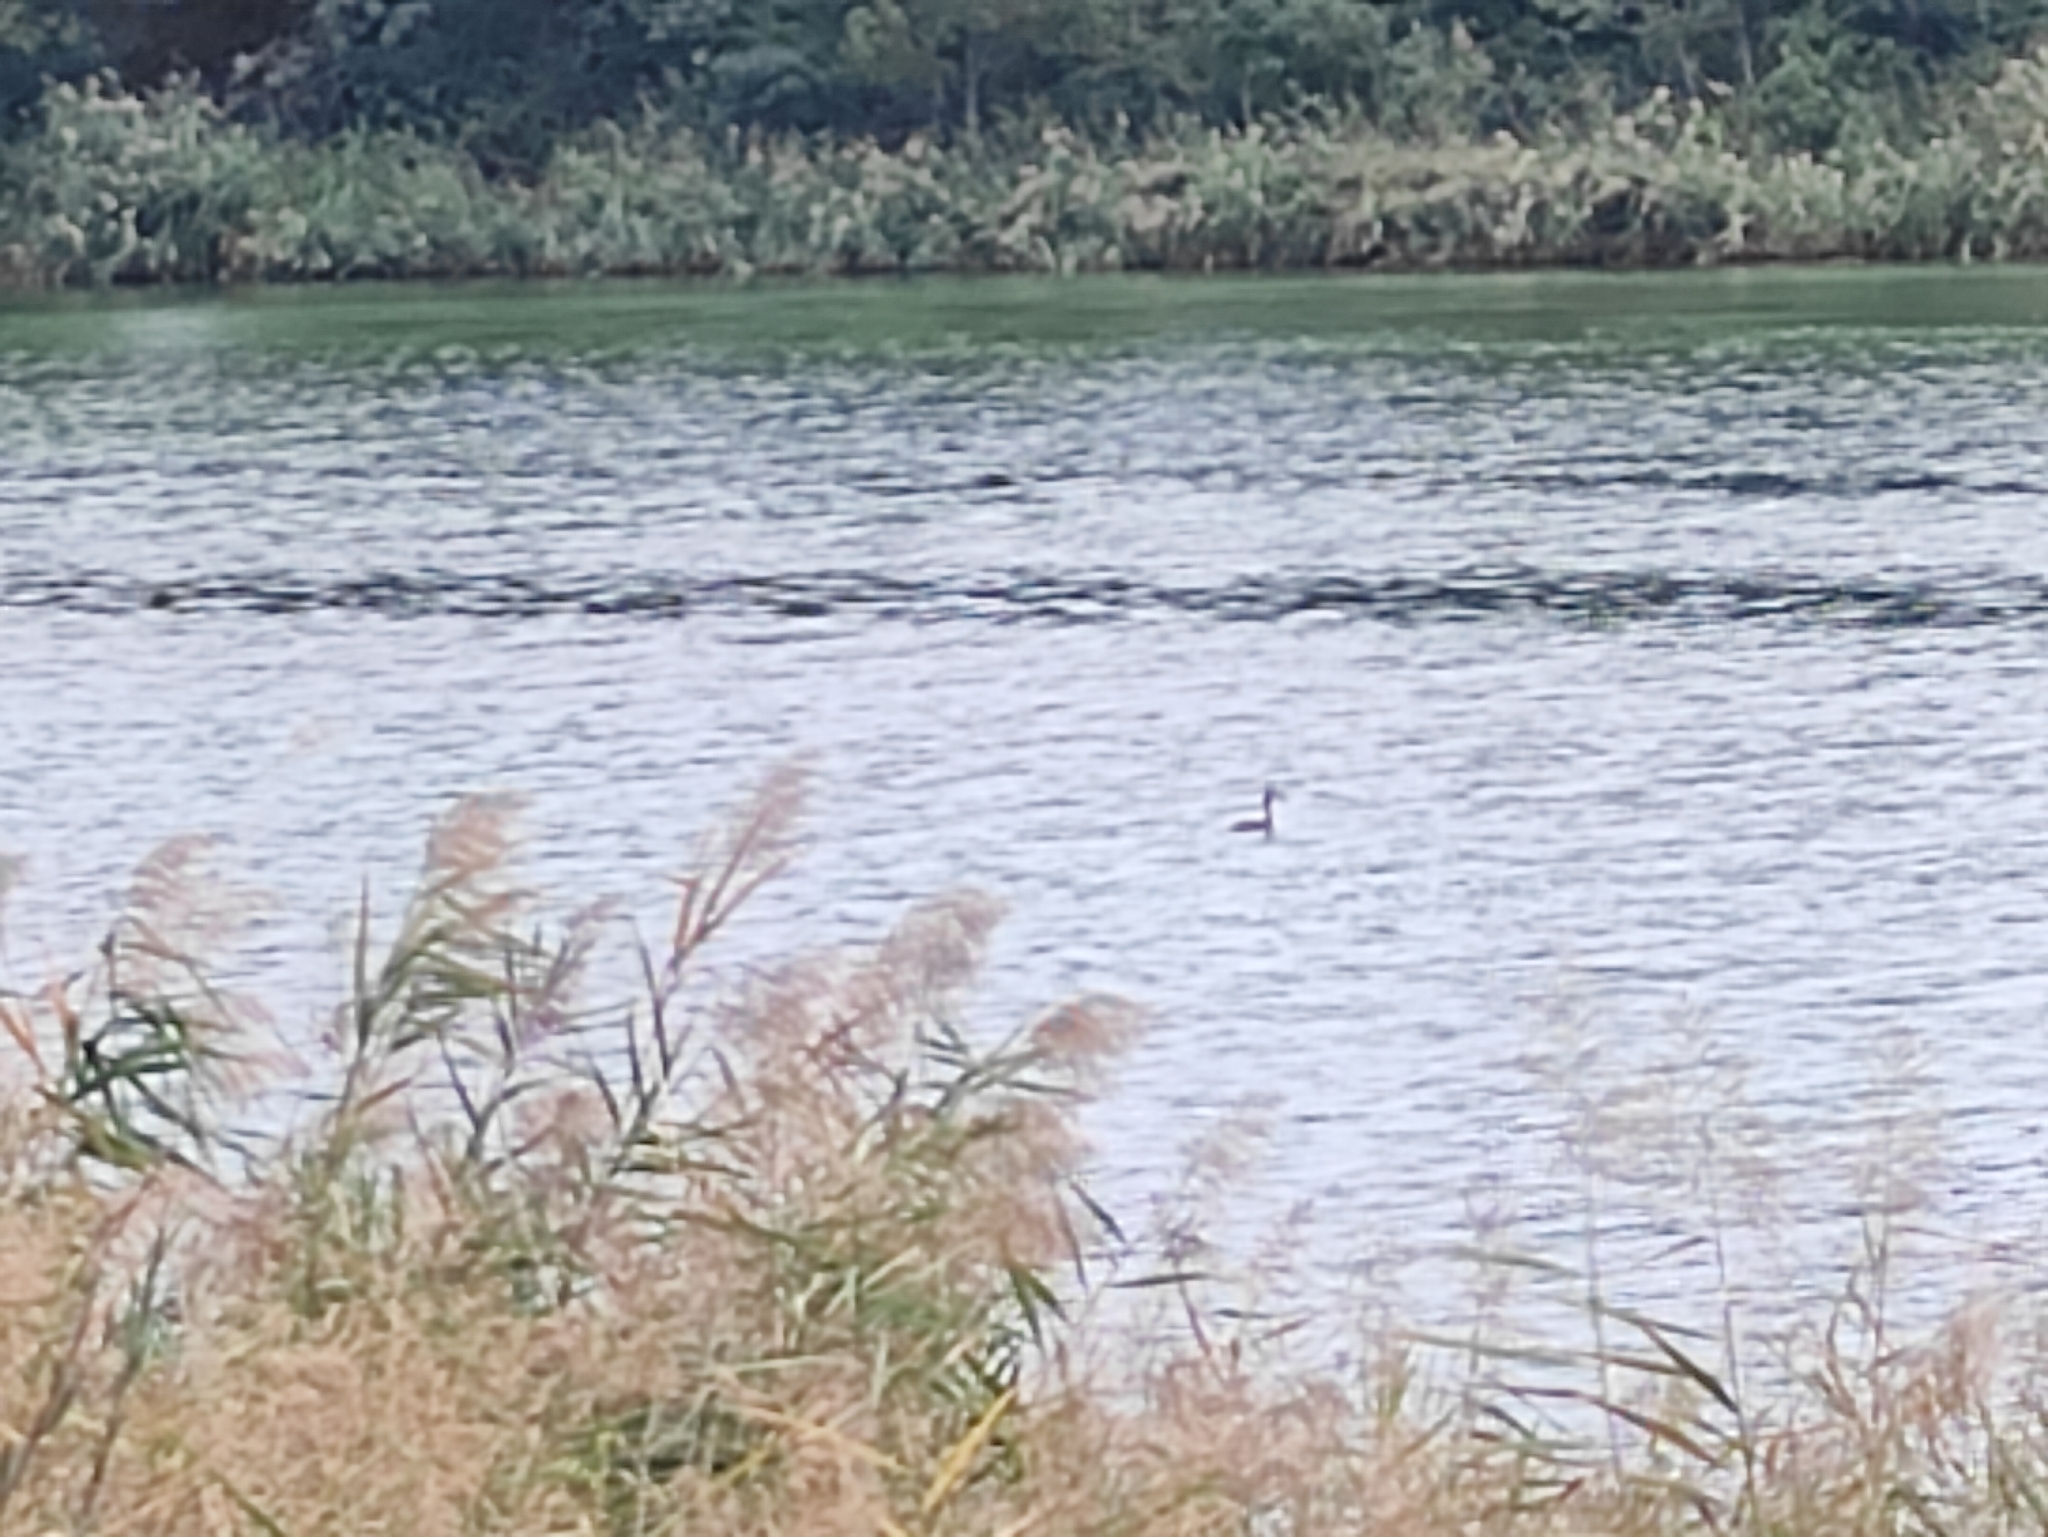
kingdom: Animalia
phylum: Chordata
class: Aves
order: Podicipediformes
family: Podicipedidae
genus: Podiceps
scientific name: Podiceps cristatus
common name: Great crested grebe
